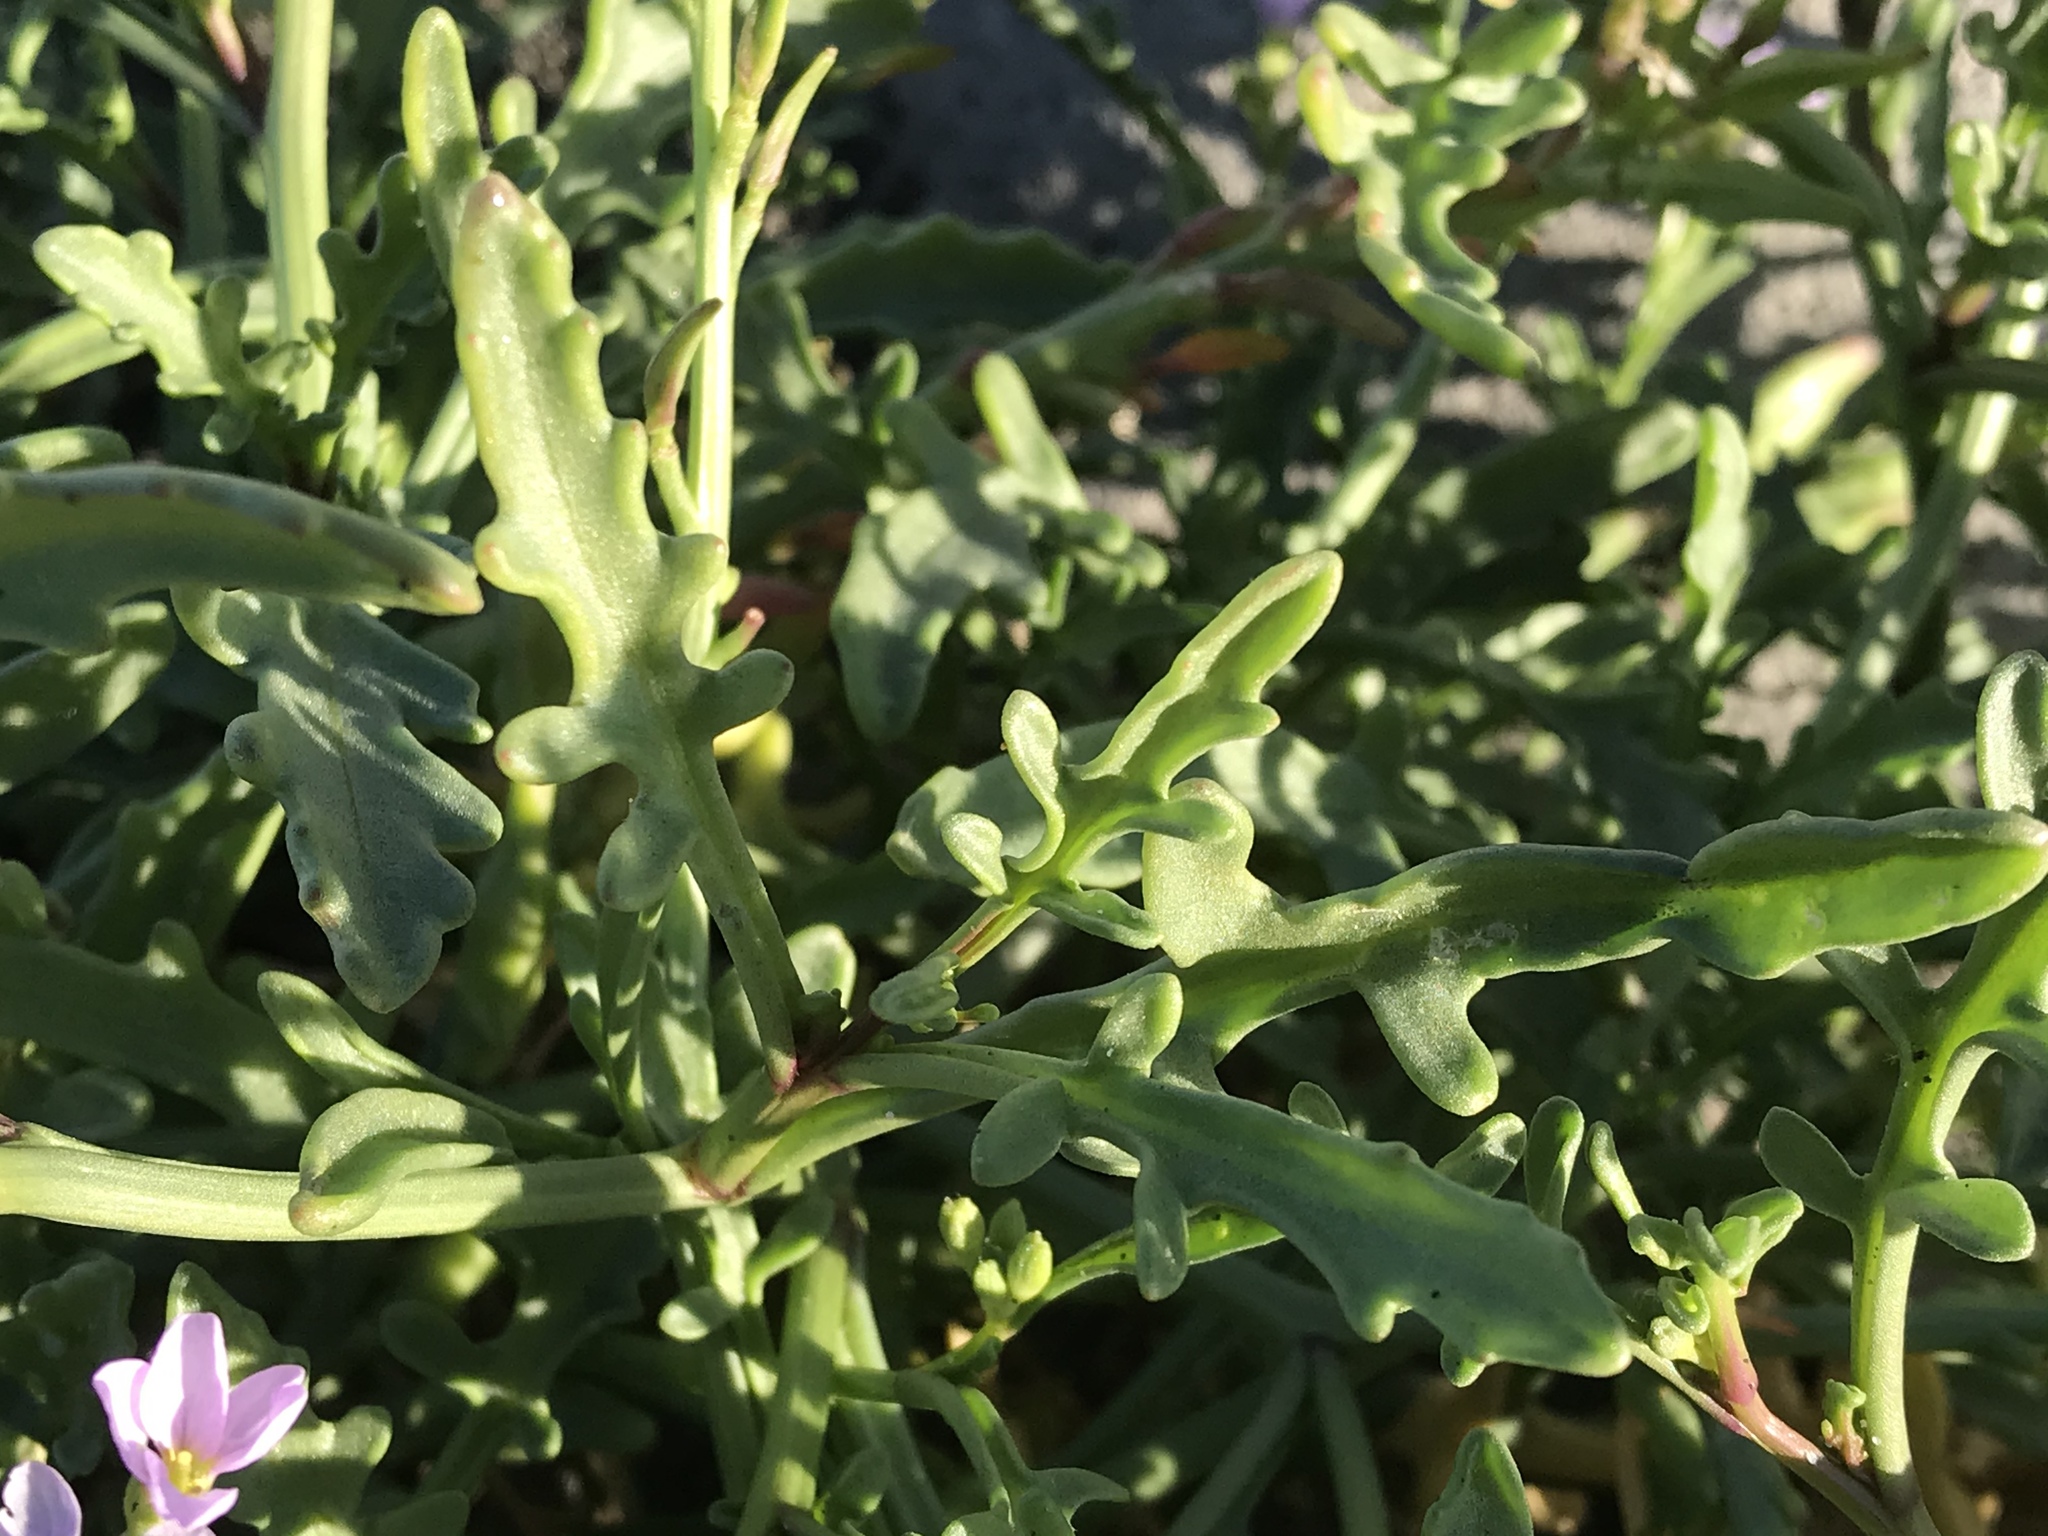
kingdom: Plantae
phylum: Tracheophyta
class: Magnoliopsida
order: Brassicales
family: Brassicaceae
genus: Cakile
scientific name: Cakile maritima
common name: Sea rocket
